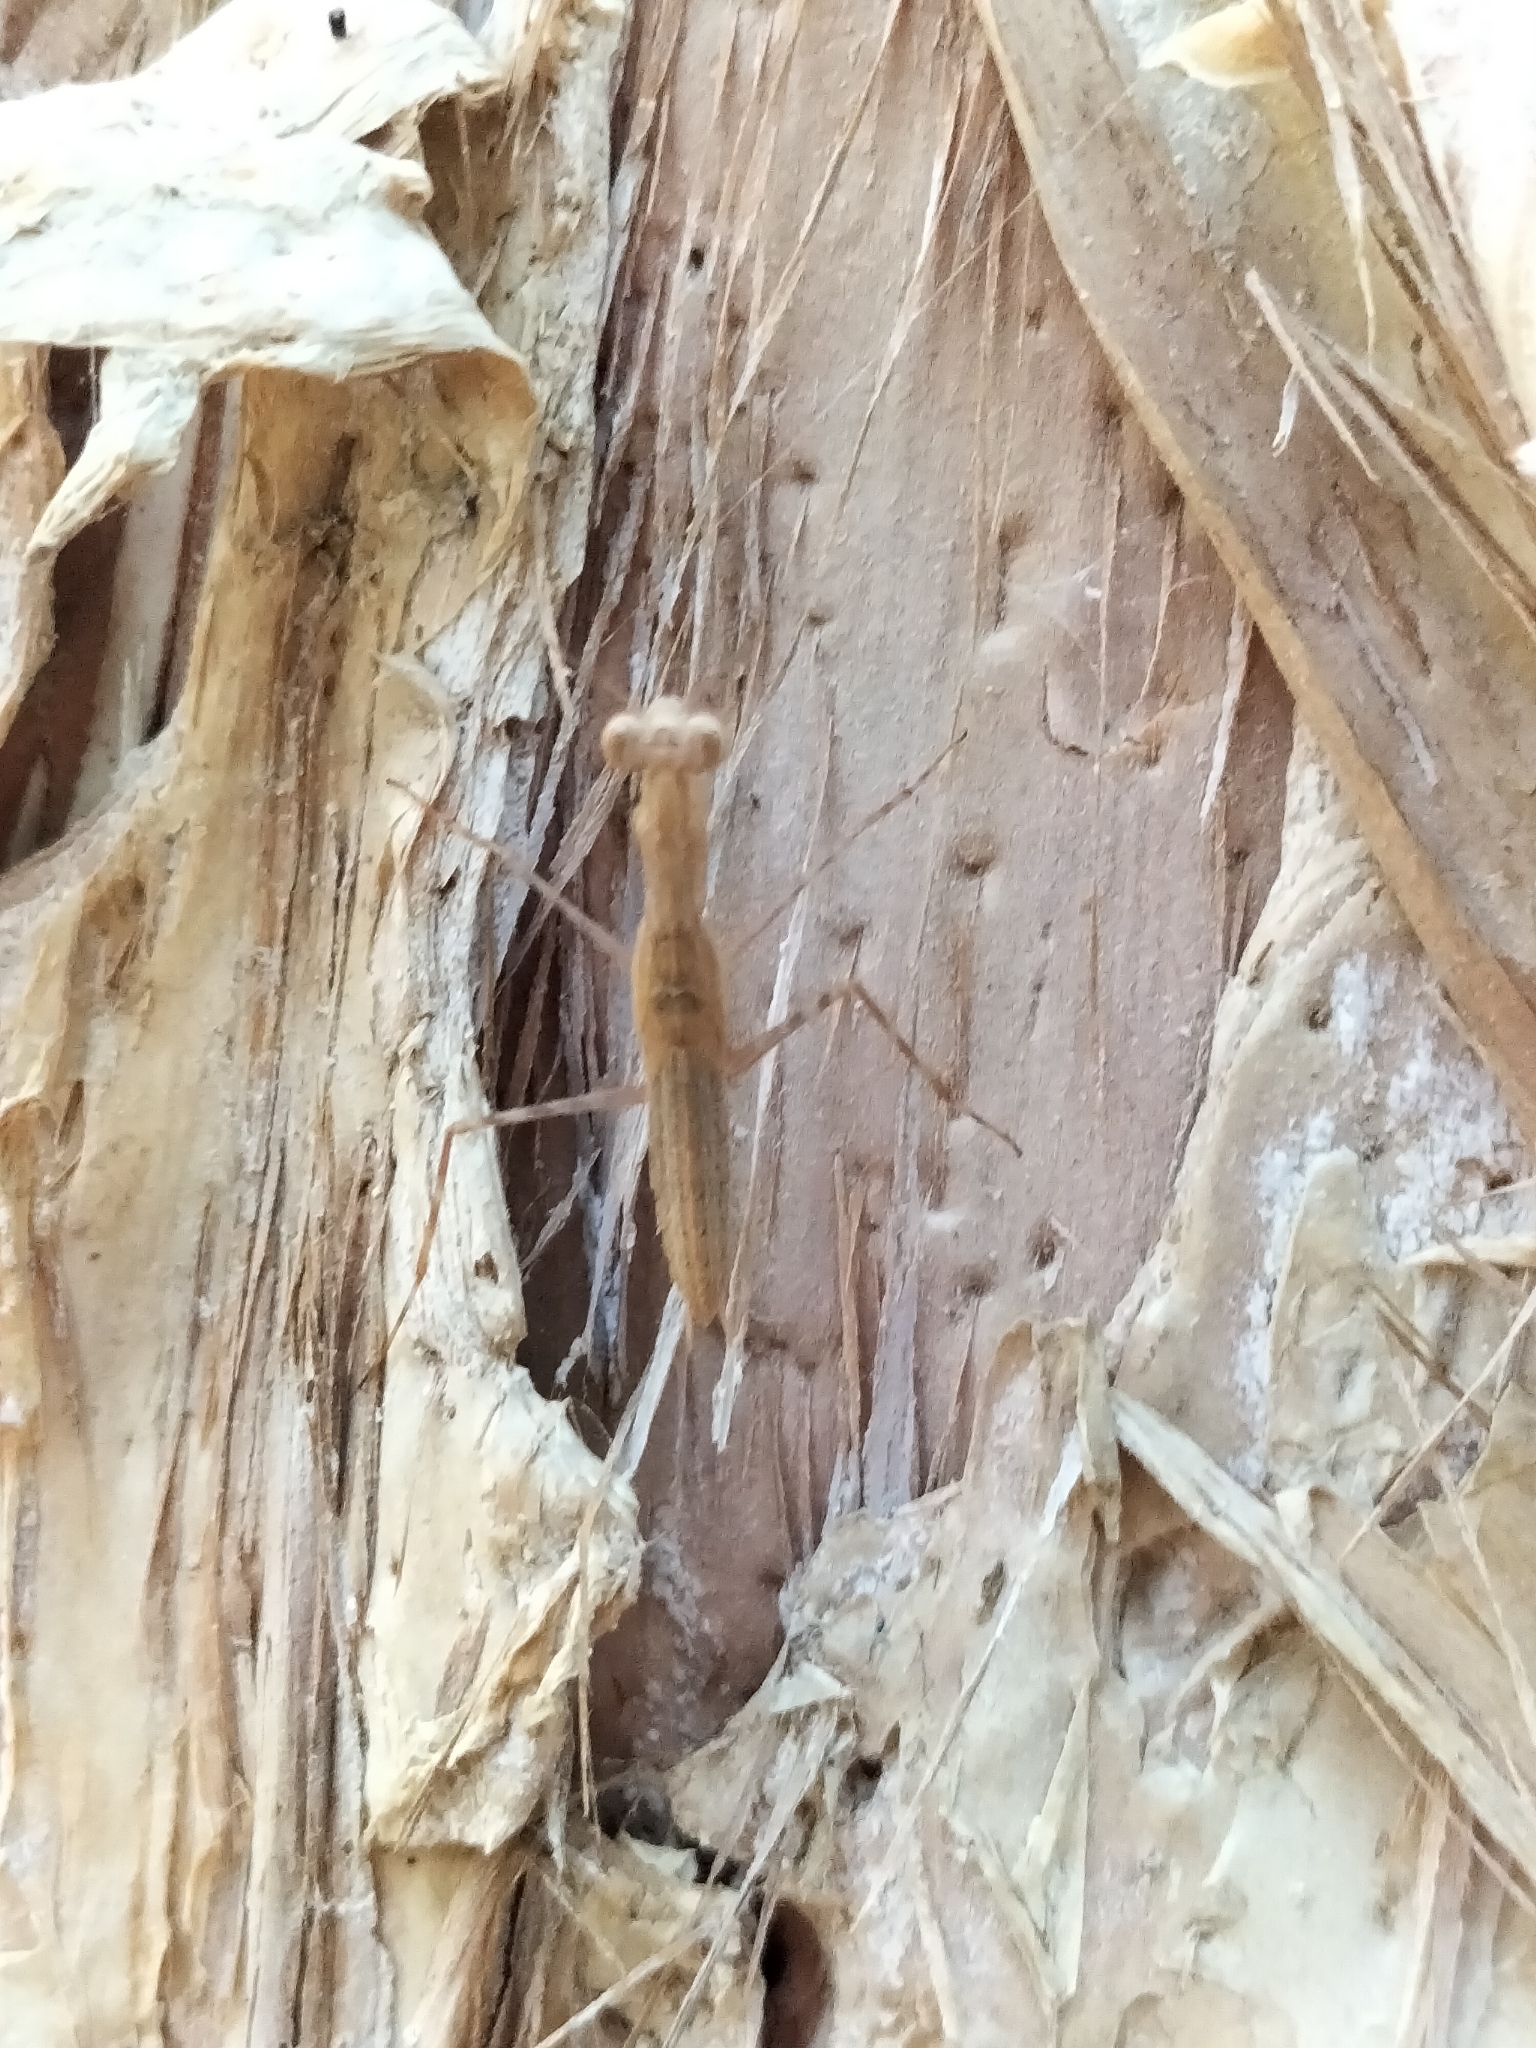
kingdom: Animalia
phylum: Arthropoda
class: Insecta
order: Mantodea
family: Nanomantidae
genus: Ima
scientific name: Ima fusca
